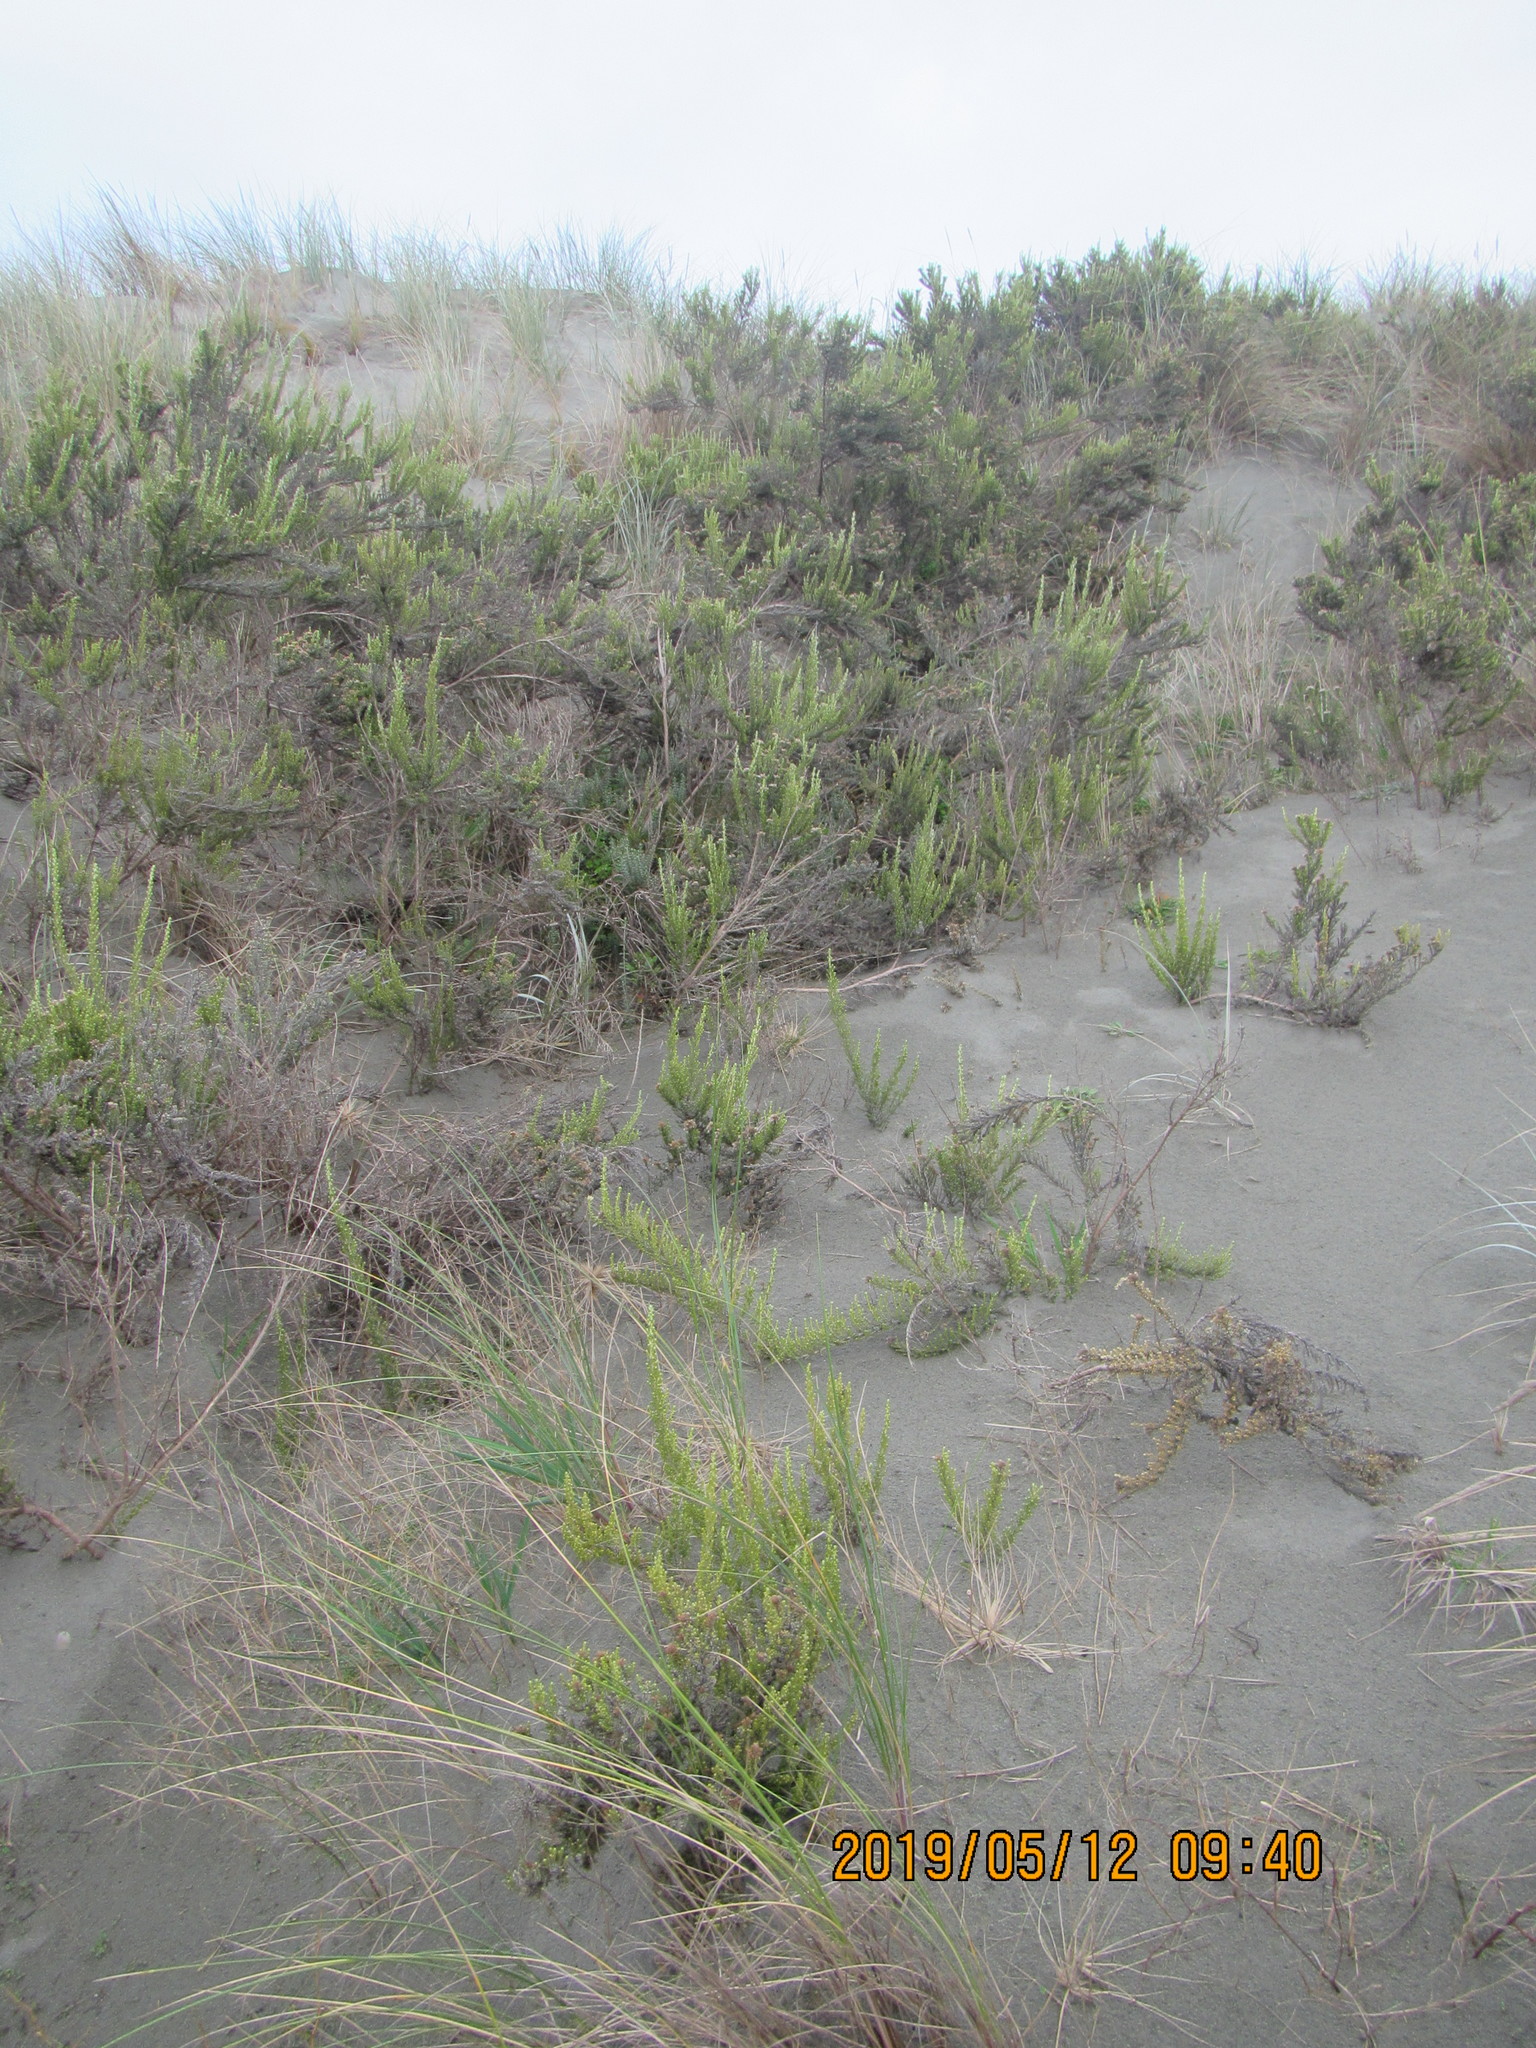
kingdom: Plantae
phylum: Tracheophyta
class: Magnoliopsida
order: Asterales
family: Asteraceae
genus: Ozothamnus
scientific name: Ozothamnus leptophyllus
